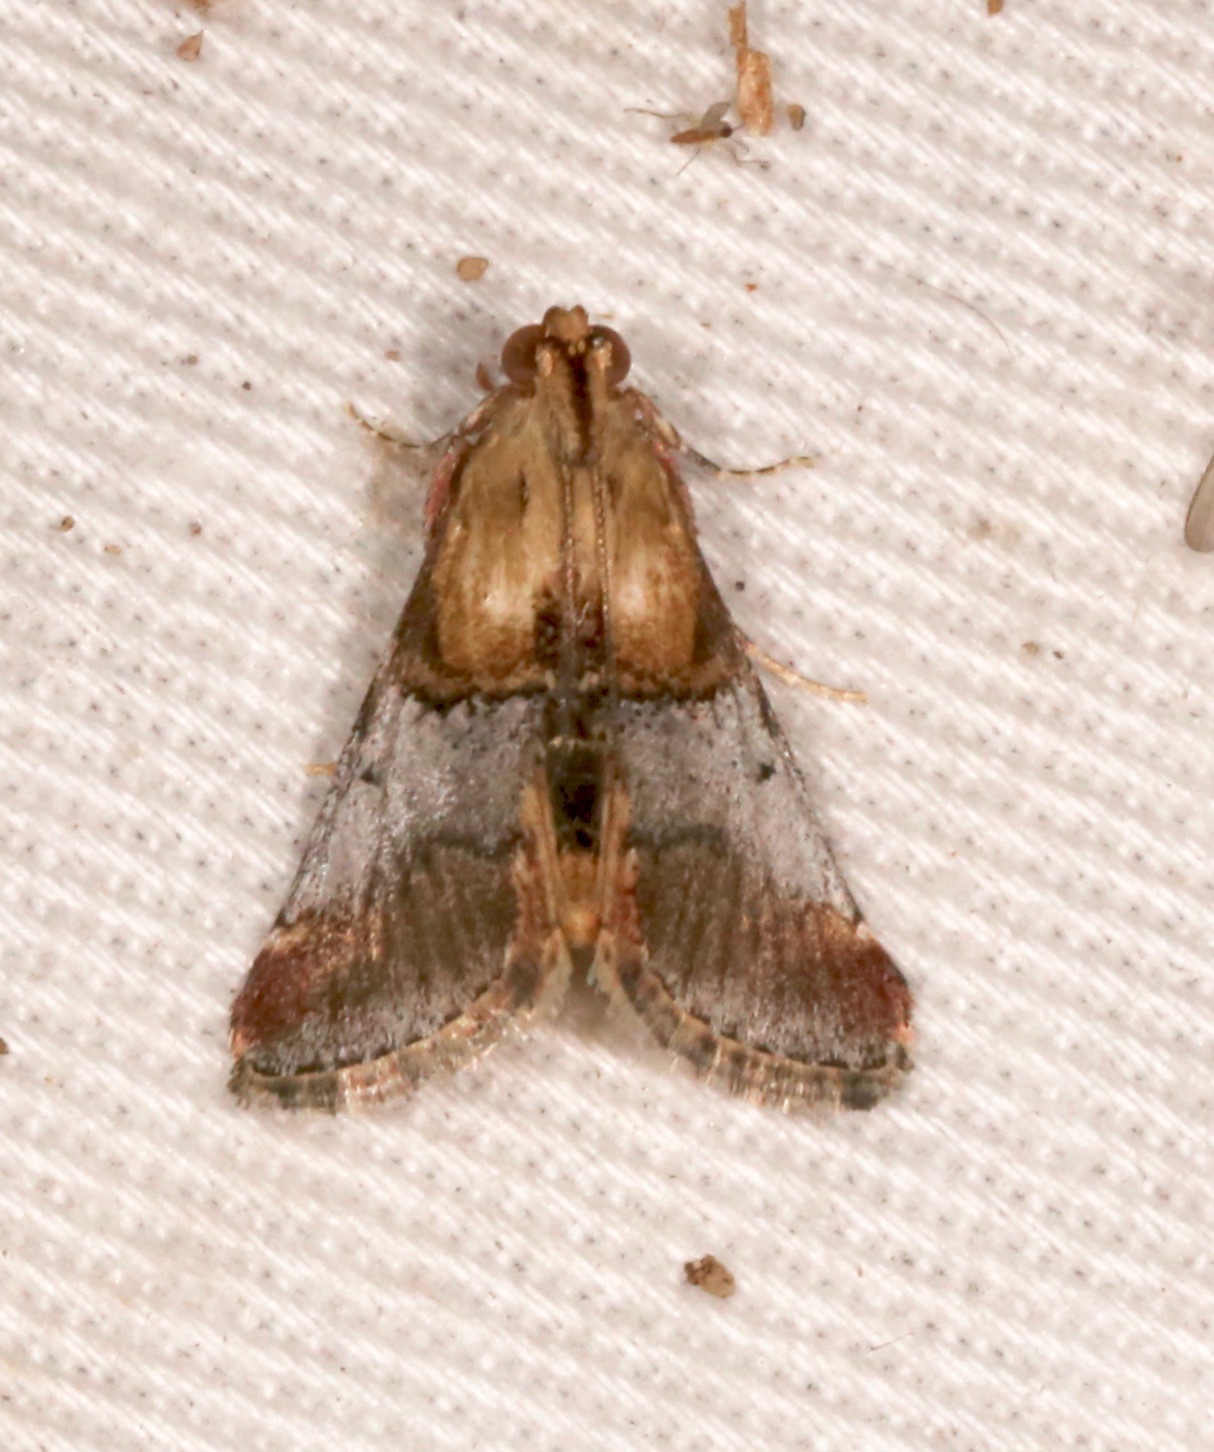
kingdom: Animalia
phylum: Arthropoda
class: Insecta
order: Lepidoptera
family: Pyralidae
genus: Cacozelia
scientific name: Cacozelia basiochrealis
